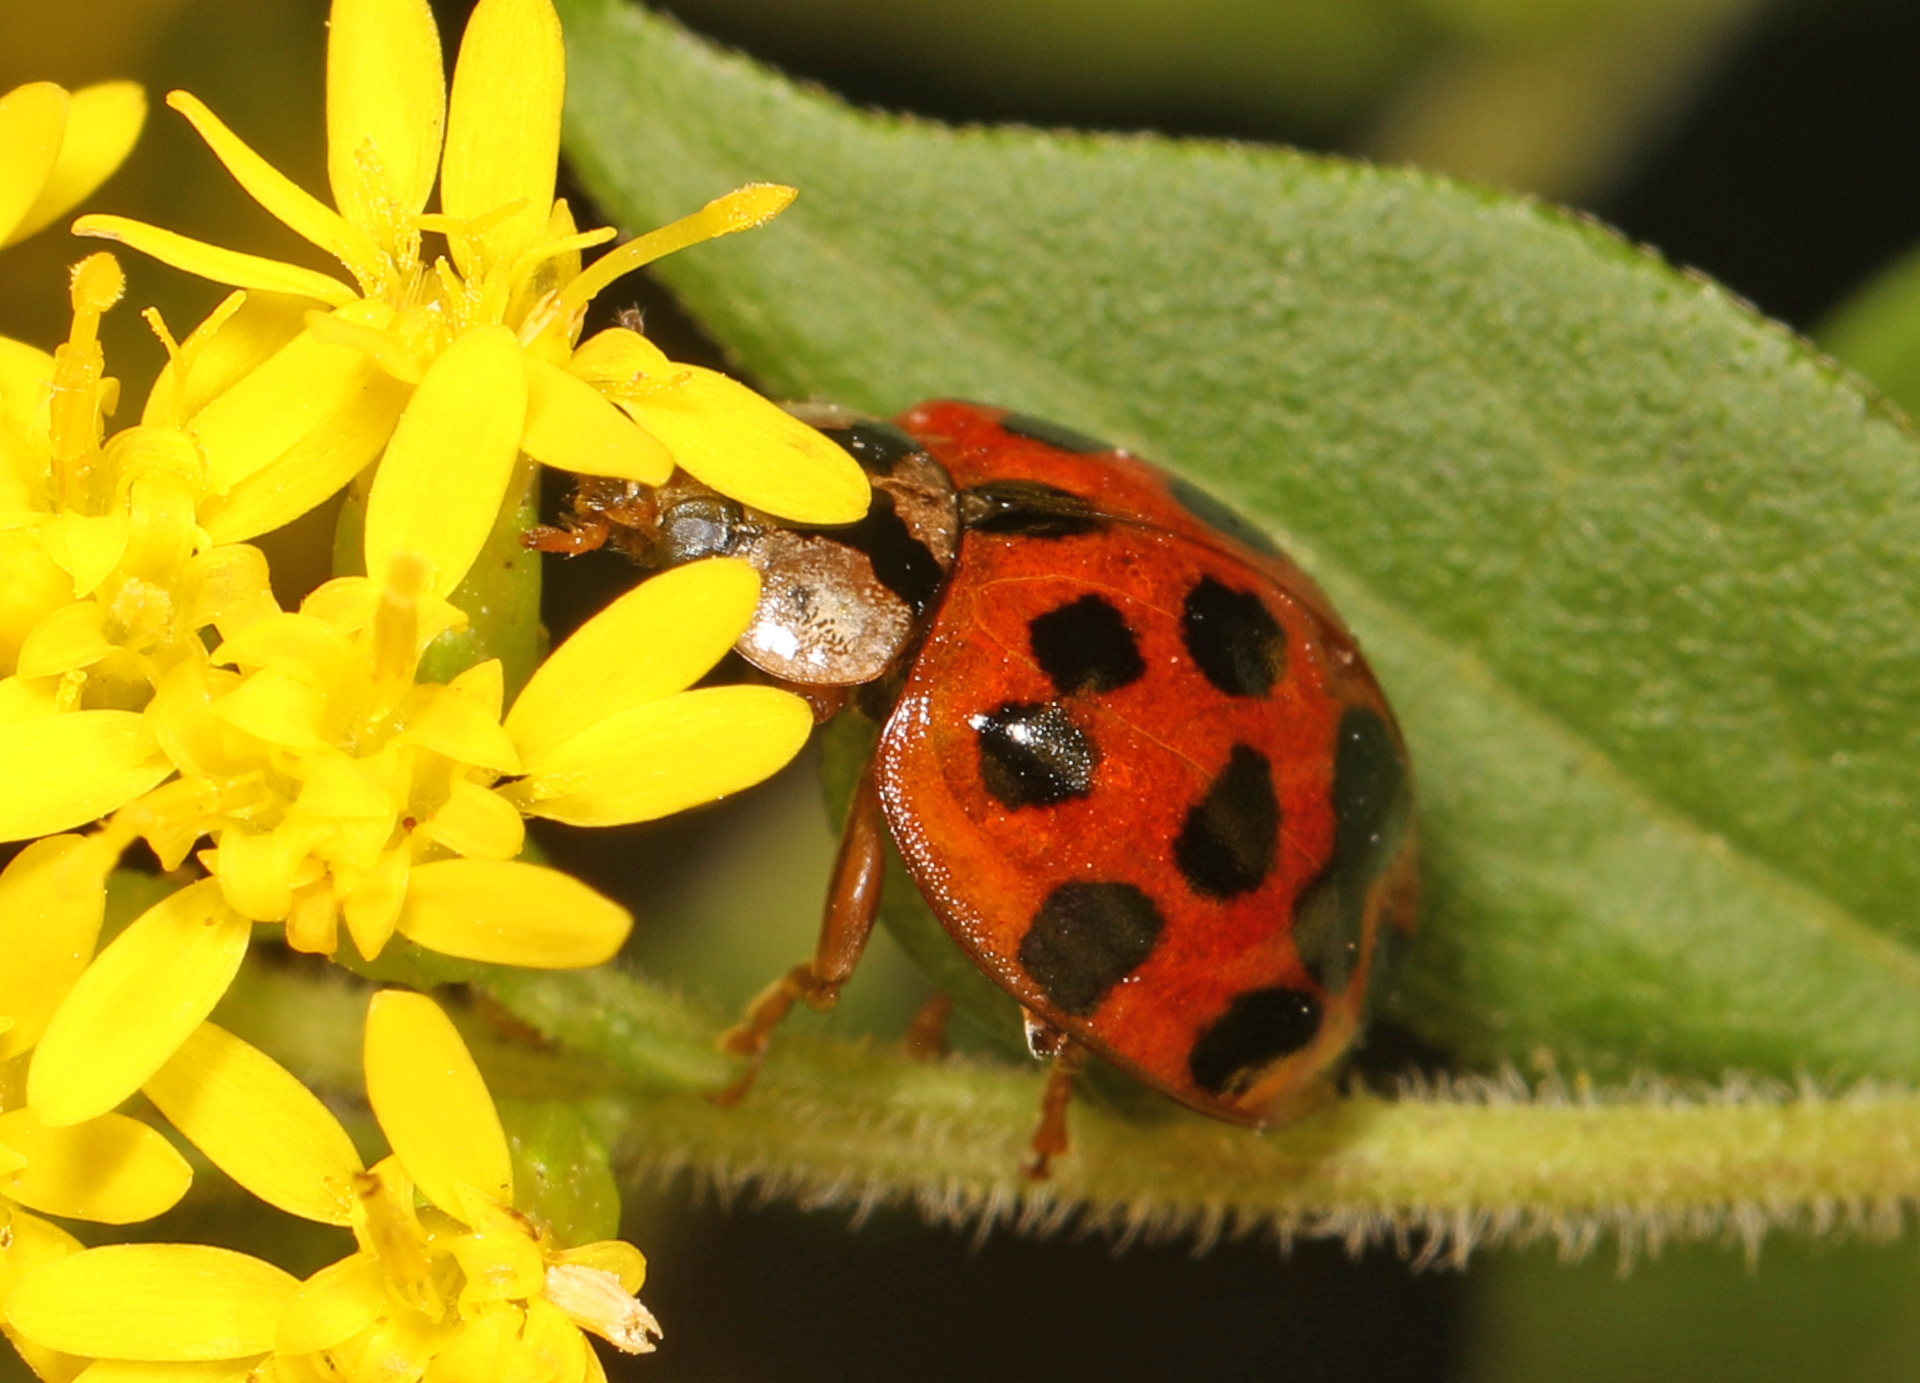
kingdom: Animalia
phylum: Arthropoda
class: Insecta
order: Coleoptera
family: Coccinellidae
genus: Harmonia
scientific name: Harmonia axyridis
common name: Harlequin ladybird
